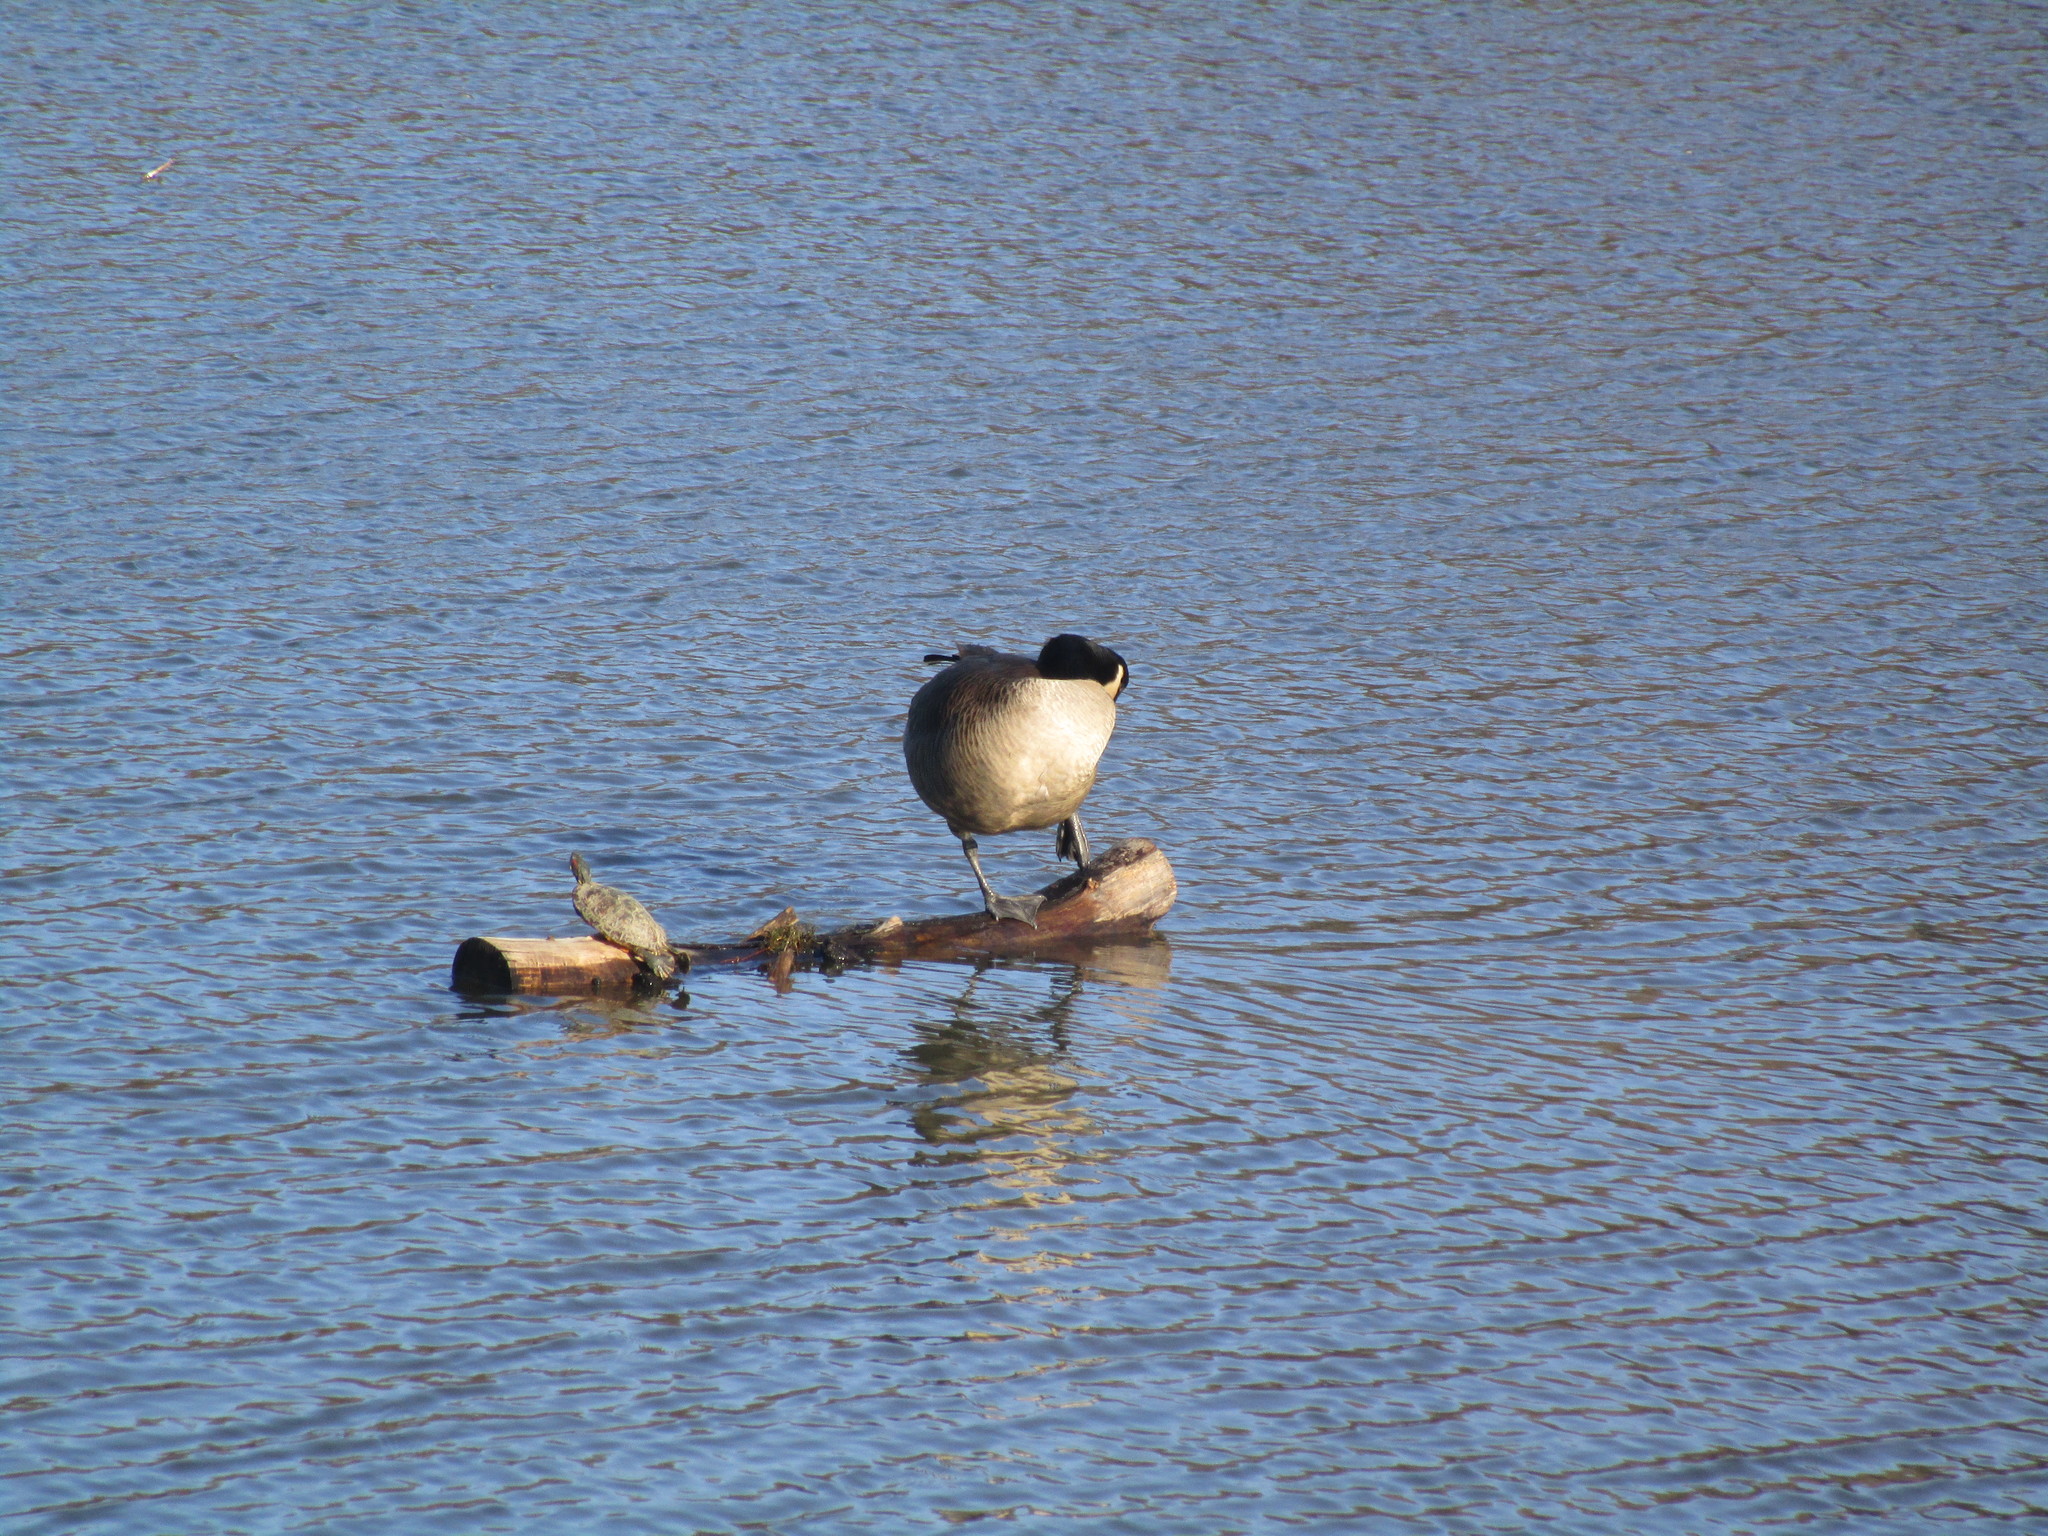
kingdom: Animalia
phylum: Chordata
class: Testudines
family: Emydidae
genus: Trachemys
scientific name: Trachemys scripta
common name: Slider
